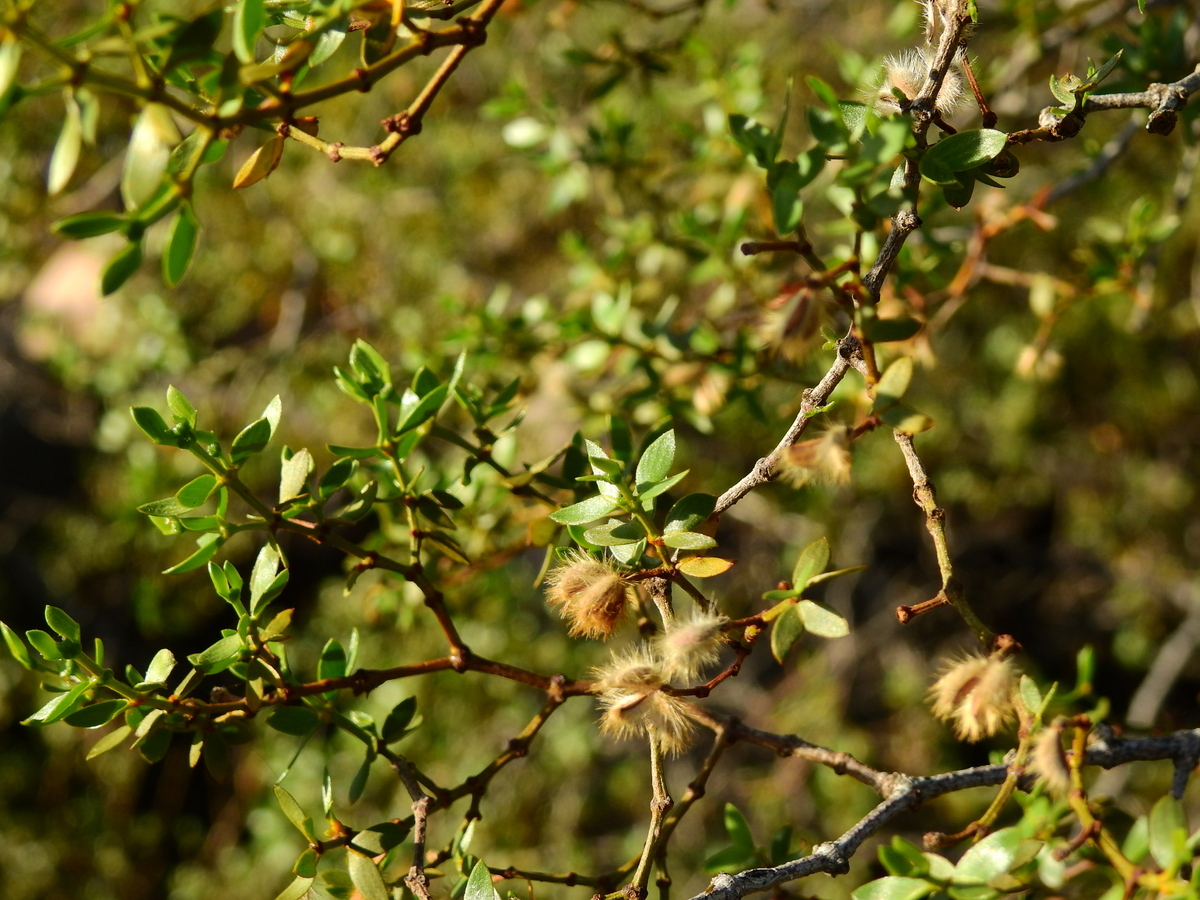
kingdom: Plantae
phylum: Tracheophyta
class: Magnoliopsida
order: Zygophyllales
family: Zygophyllaceae
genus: Larrea
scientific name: Larrea divaricata
